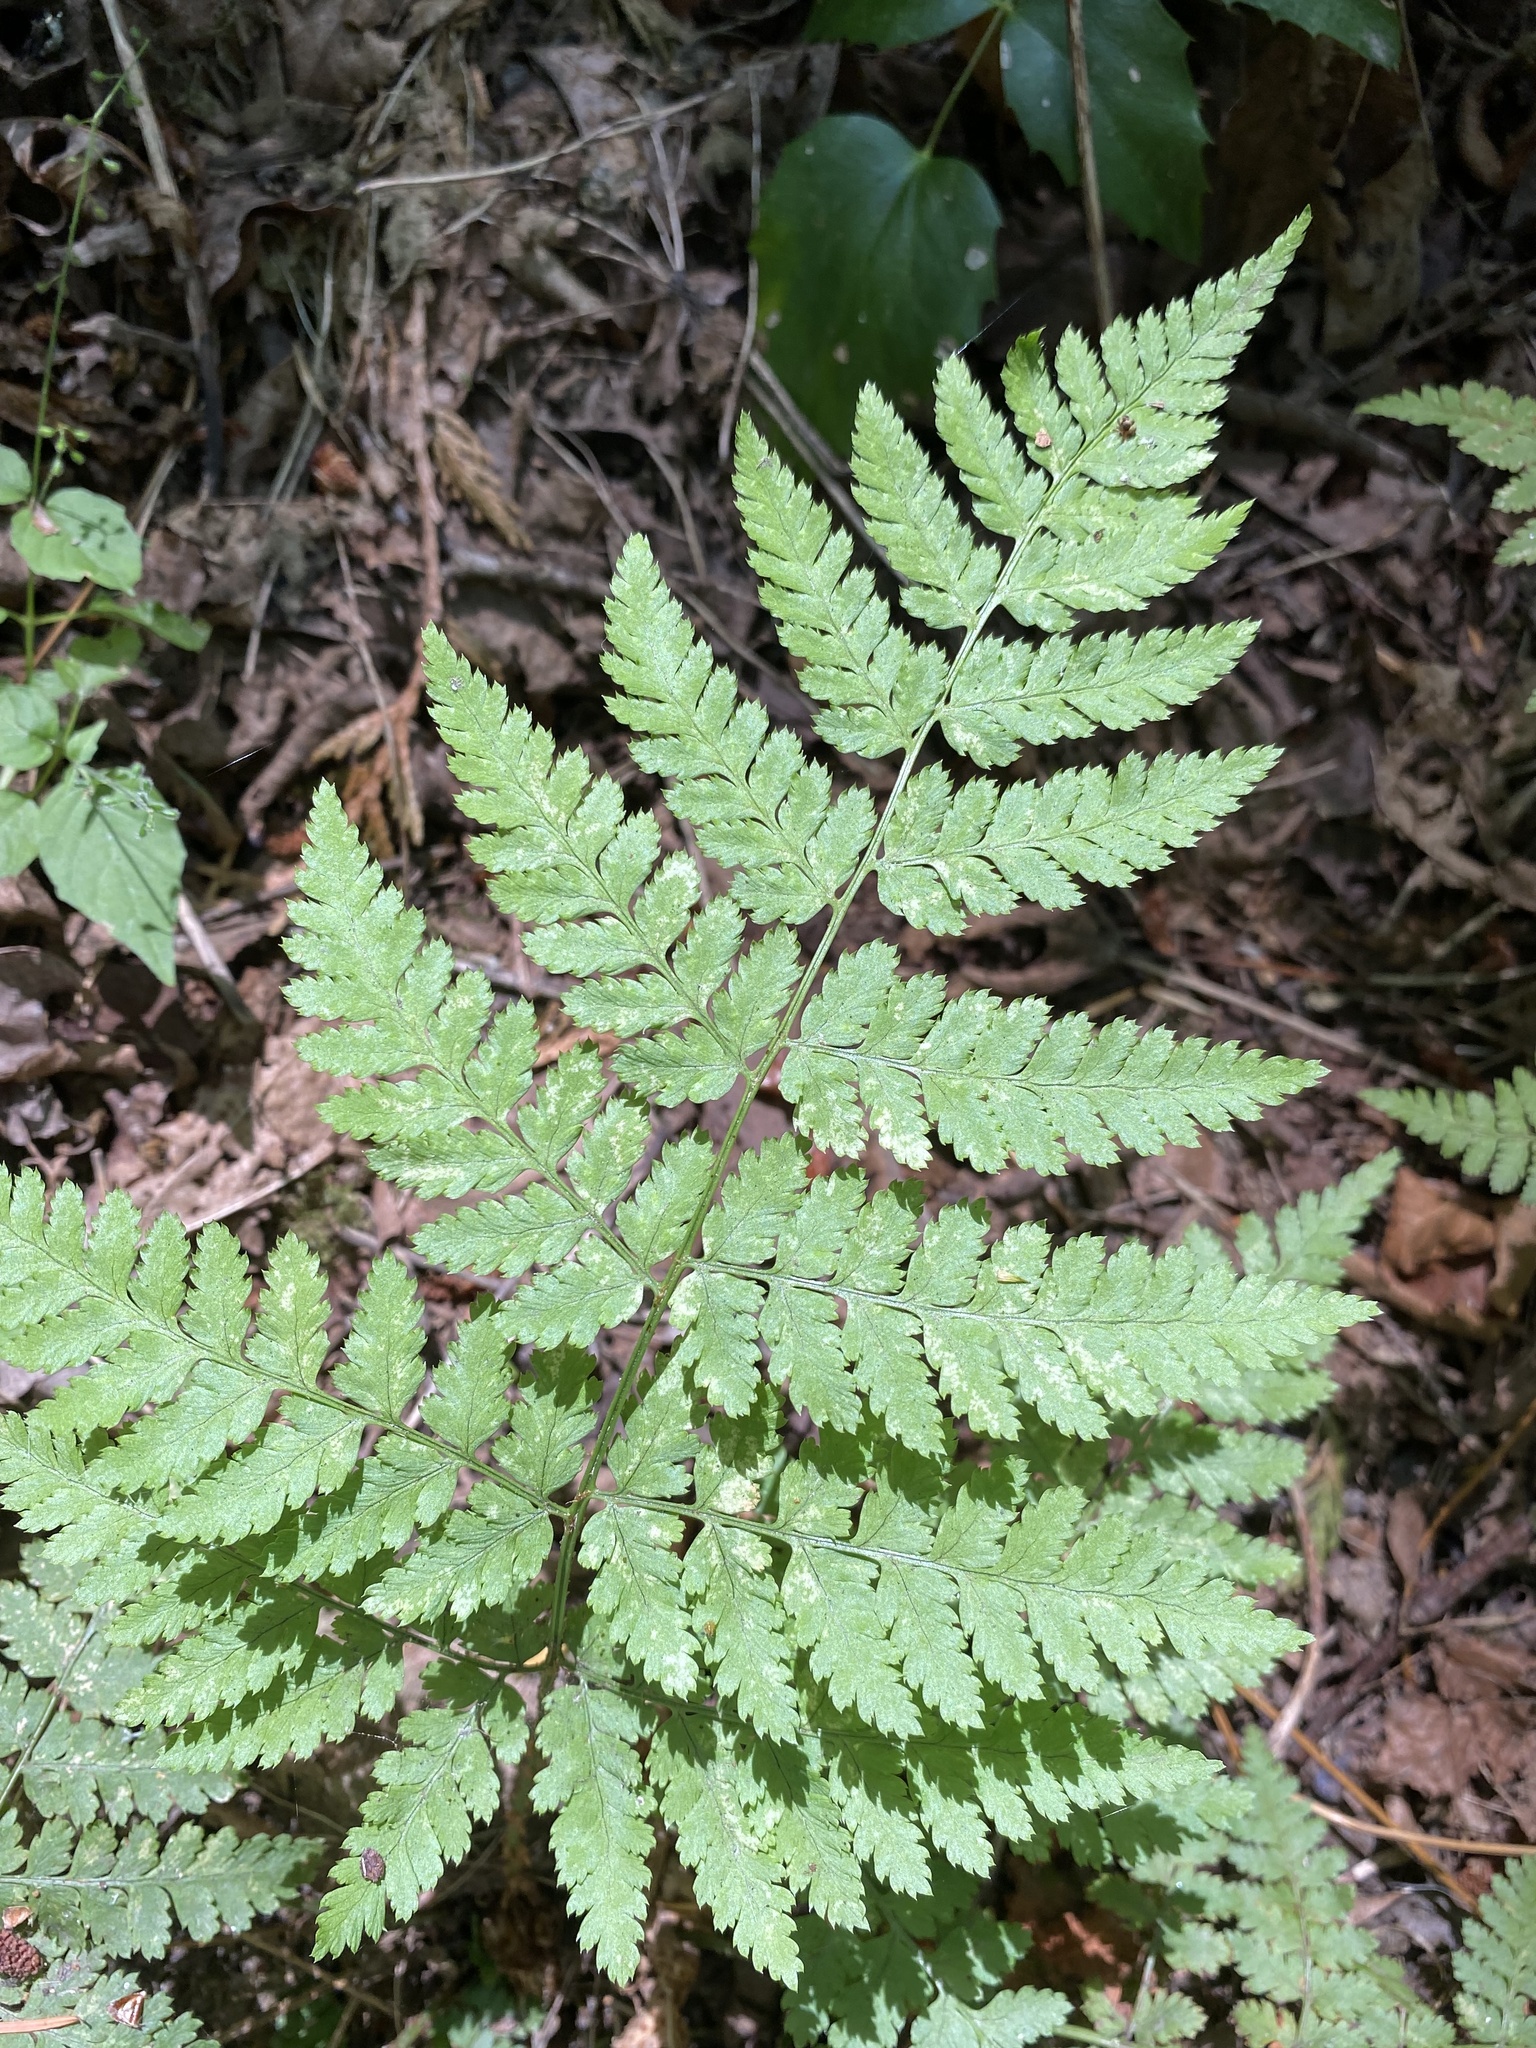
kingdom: Plantae
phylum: Tracheophyta
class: Polypodiopsida
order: Polypodiales
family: Dryopteridaceae
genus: Dryopteris
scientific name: Dryopteris expansa
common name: Northern buckler fern
